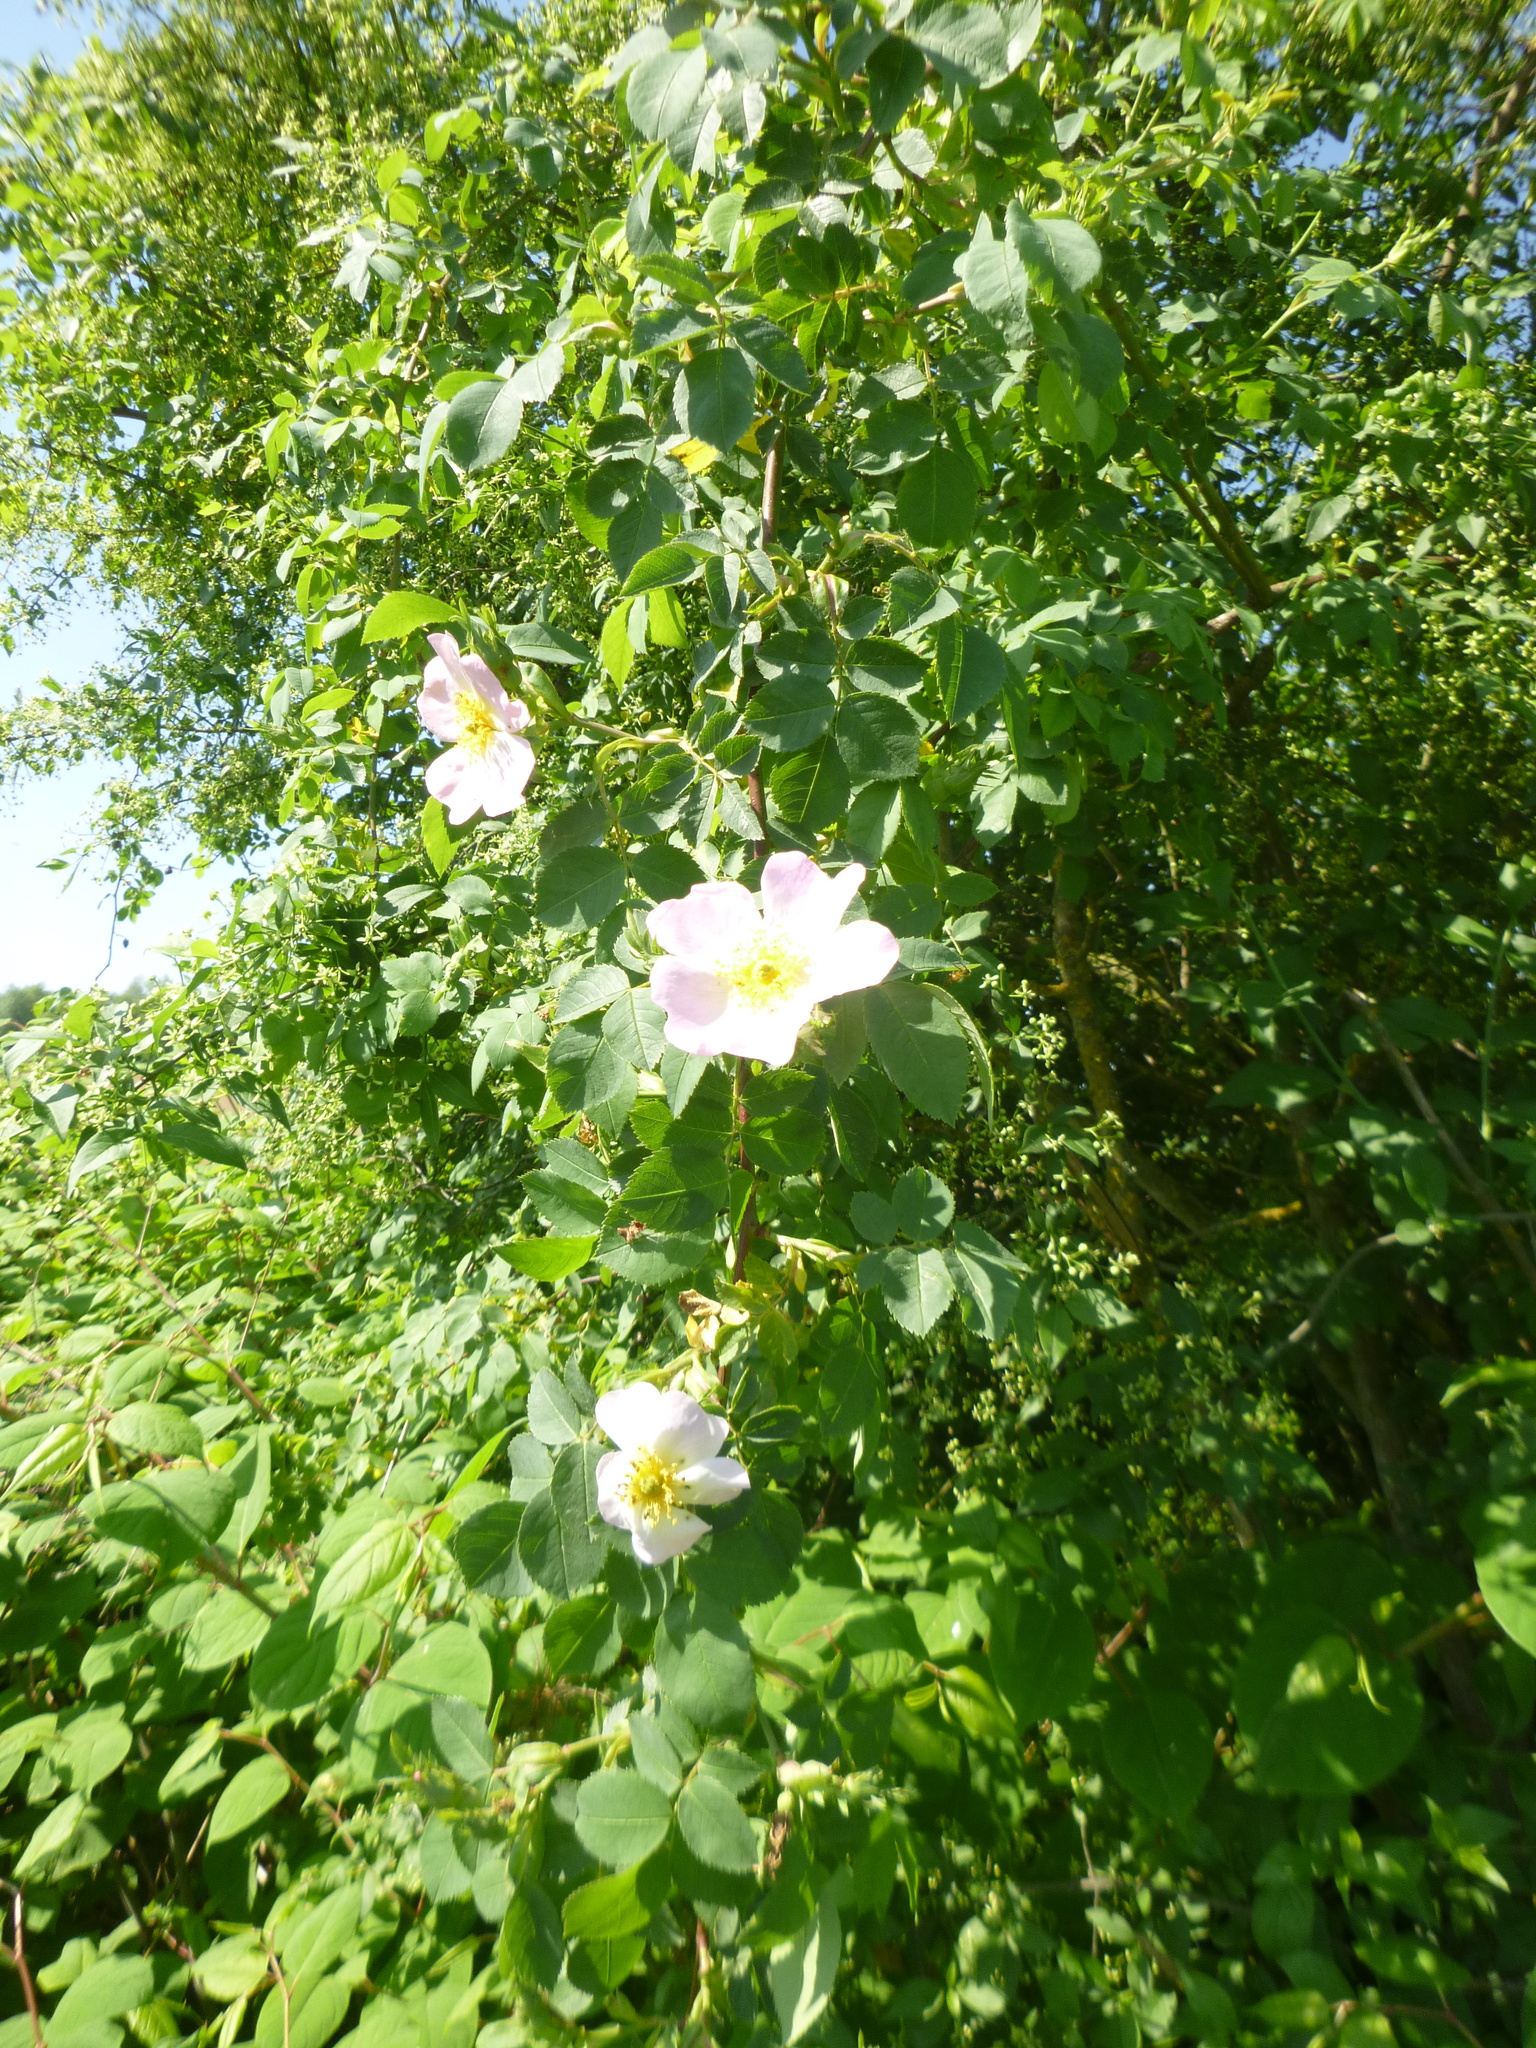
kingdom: Plantae
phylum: Tracheophyta
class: Magnoliopsida
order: Rosales
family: Rosaceae
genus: Rosa
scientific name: Rosa canina
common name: Dog rose
